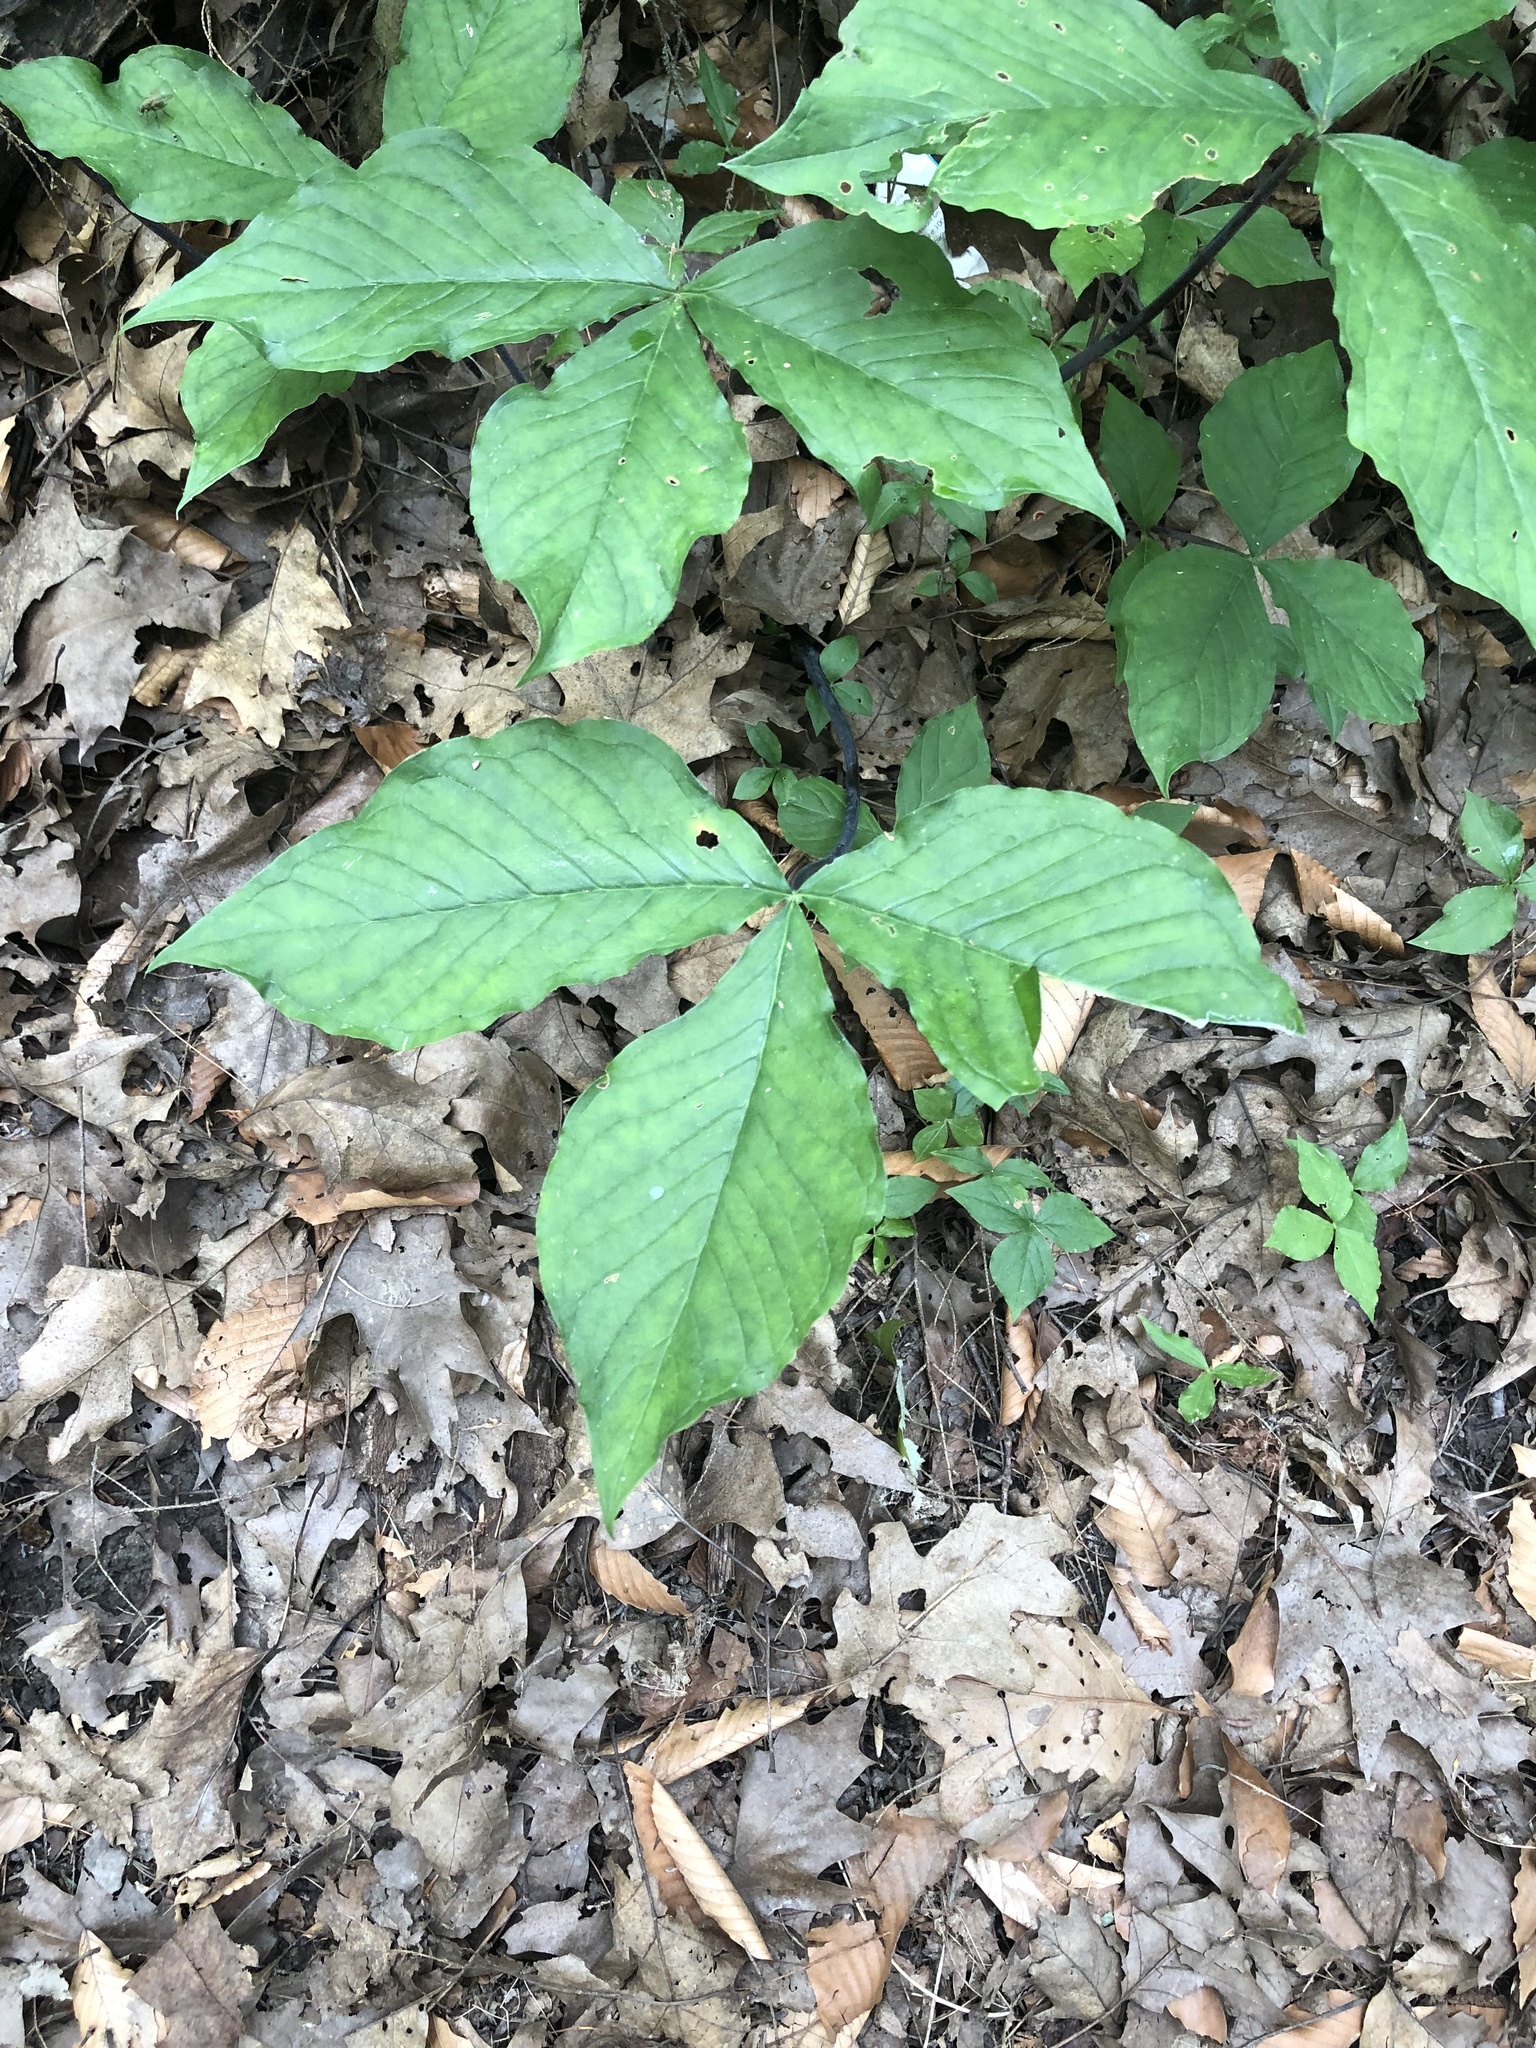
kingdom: Plantae
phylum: Tracheophyta
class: Liliopsida
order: Alismatales
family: Araceae
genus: Arisaema
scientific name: Arisaema triphyllum
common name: Jack-in-the-pulpit
